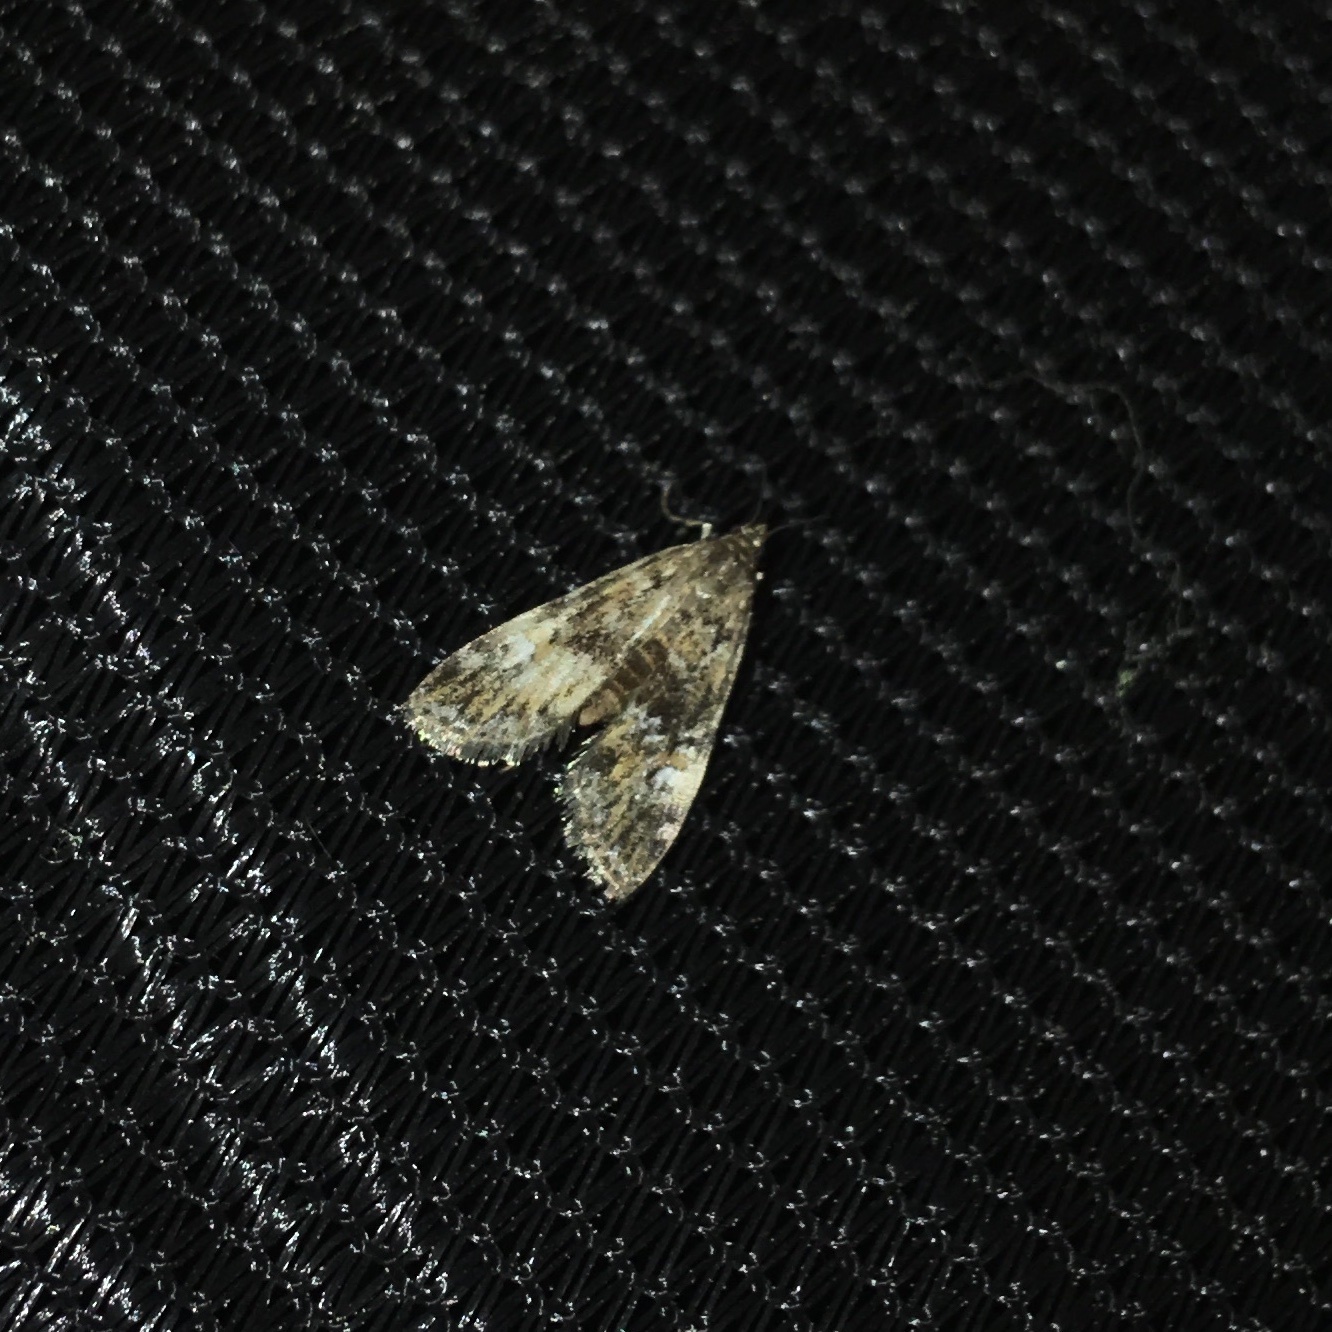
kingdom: Animalia
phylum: Arthropoda
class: Insecta
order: Lepidoptera
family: Crambidae
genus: Elophila
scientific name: Elophila obliteralis
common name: Waterlily leafcutter moth
